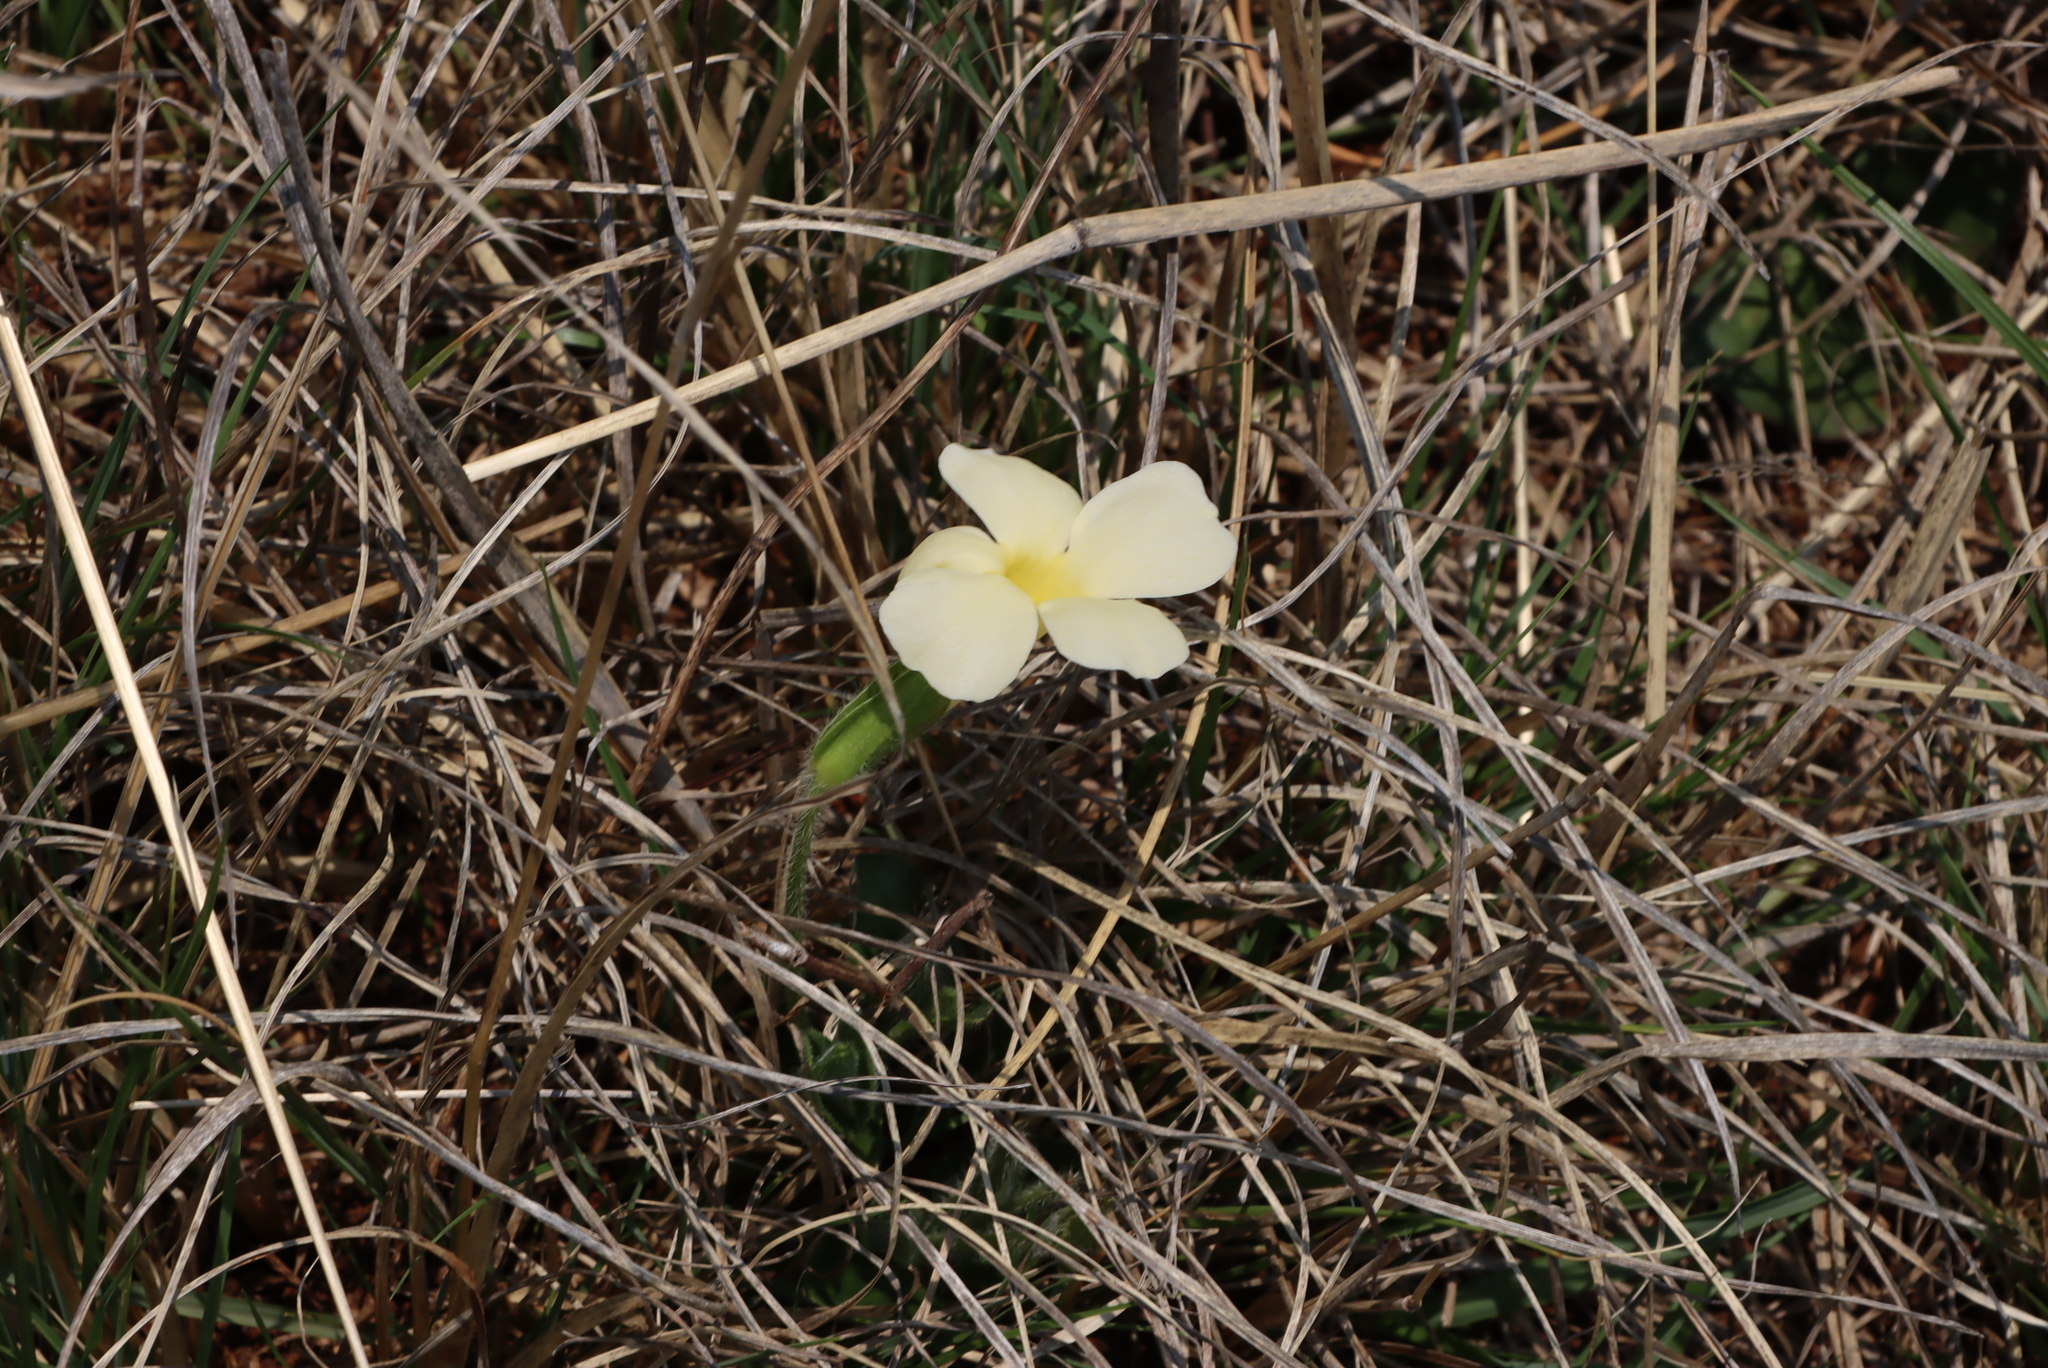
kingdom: Plantae
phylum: Tracheophyta
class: Magnoliopsida
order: Lamiales
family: Acanthaceae
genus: Thunbergia
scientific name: Thunbergia atriplicifolia
